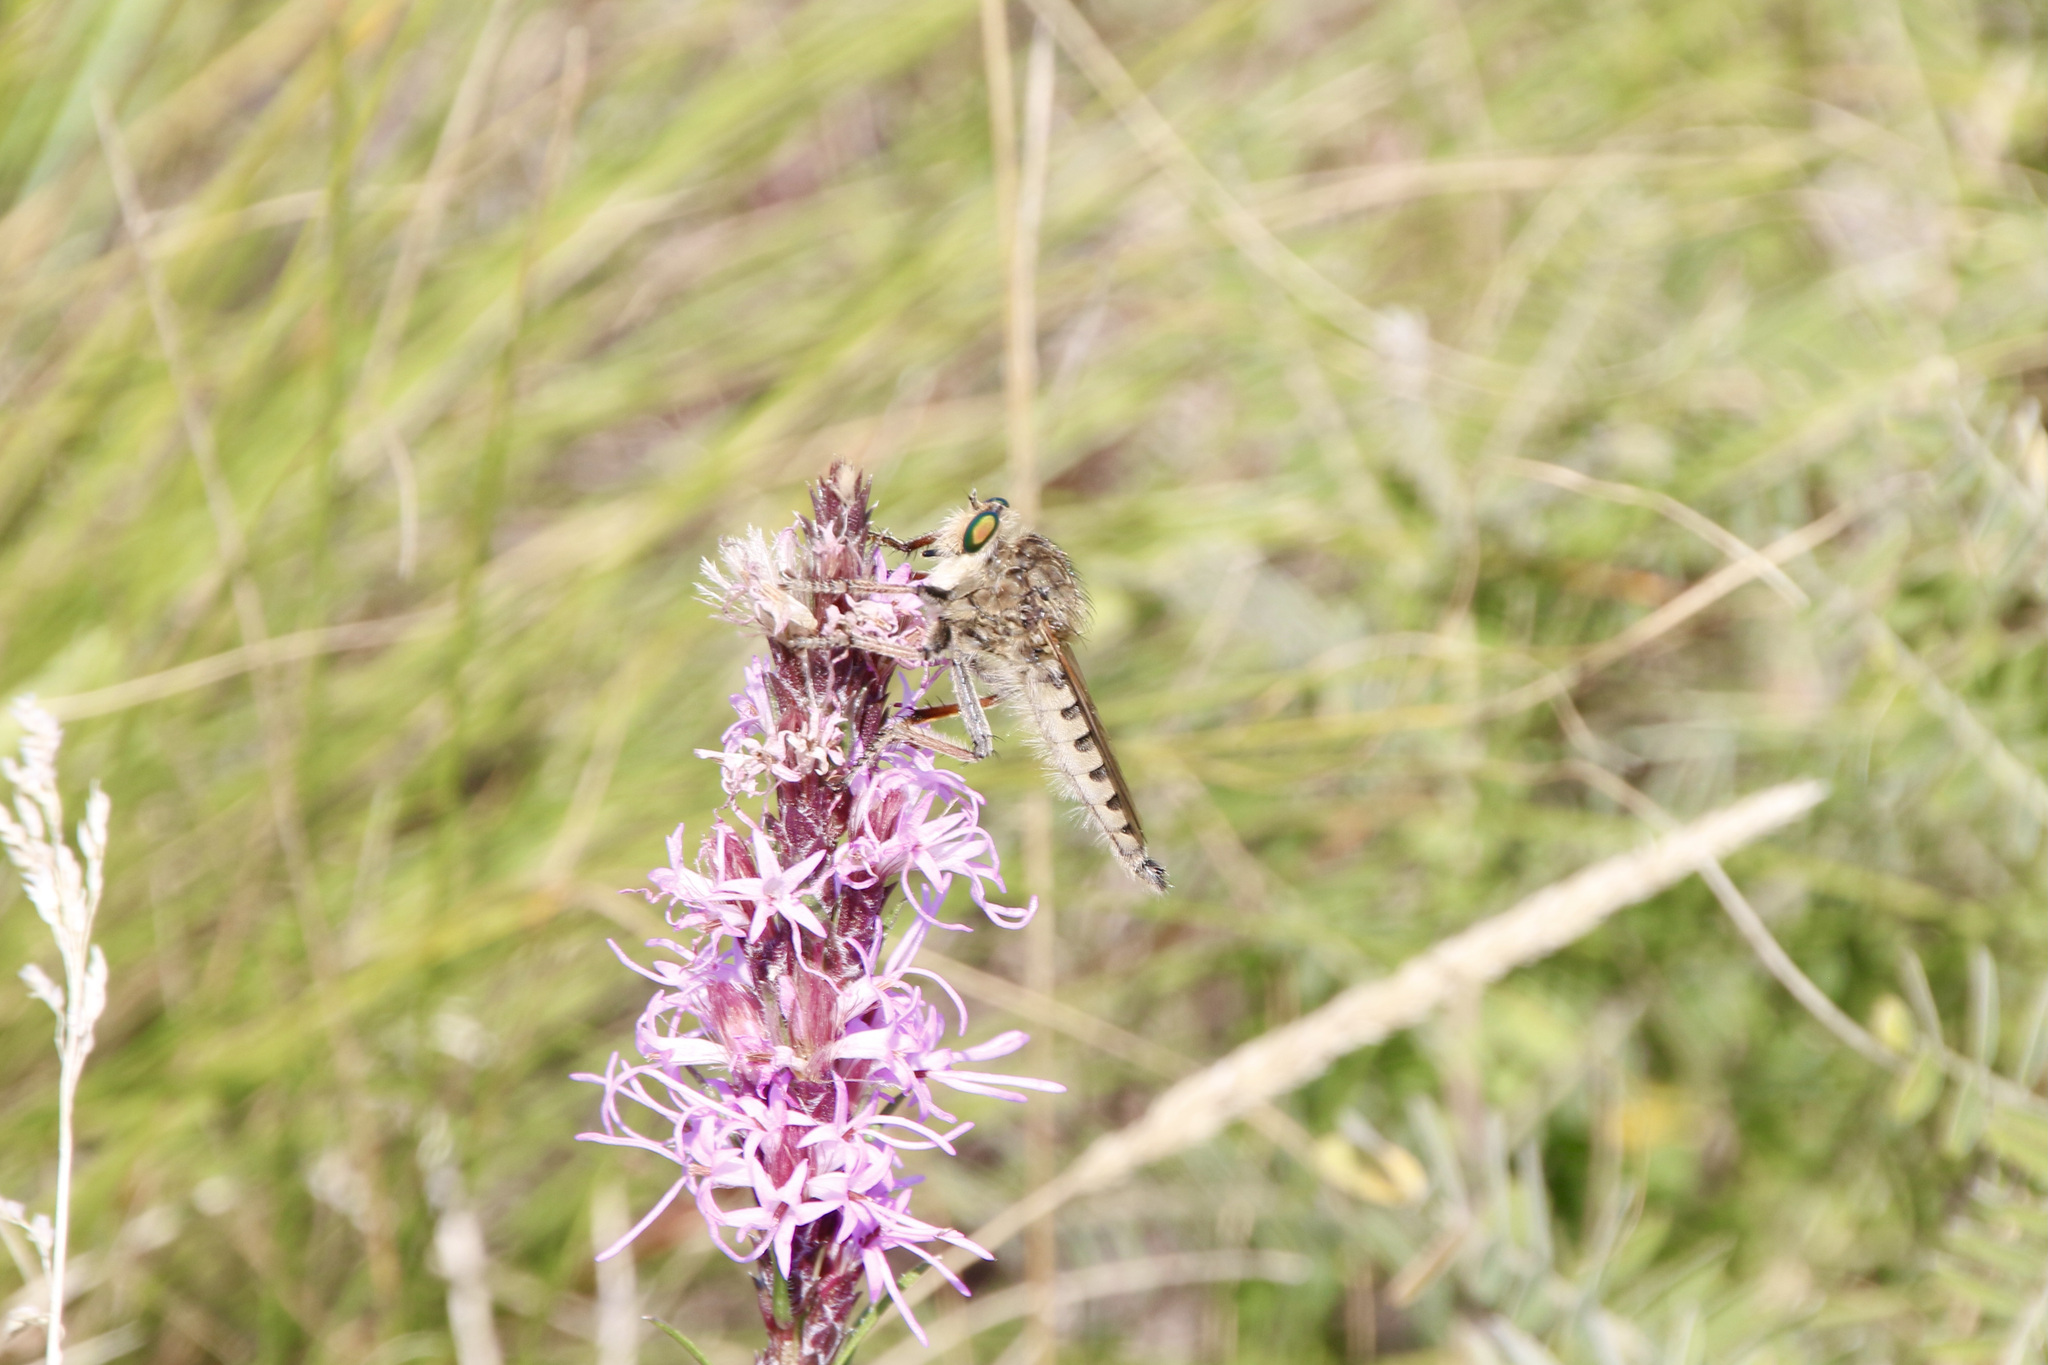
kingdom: Animalia
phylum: Arthropoda
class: Insecta
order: Diptera
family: Asilidae
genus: Promachus
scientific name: Promachus vertebratus
